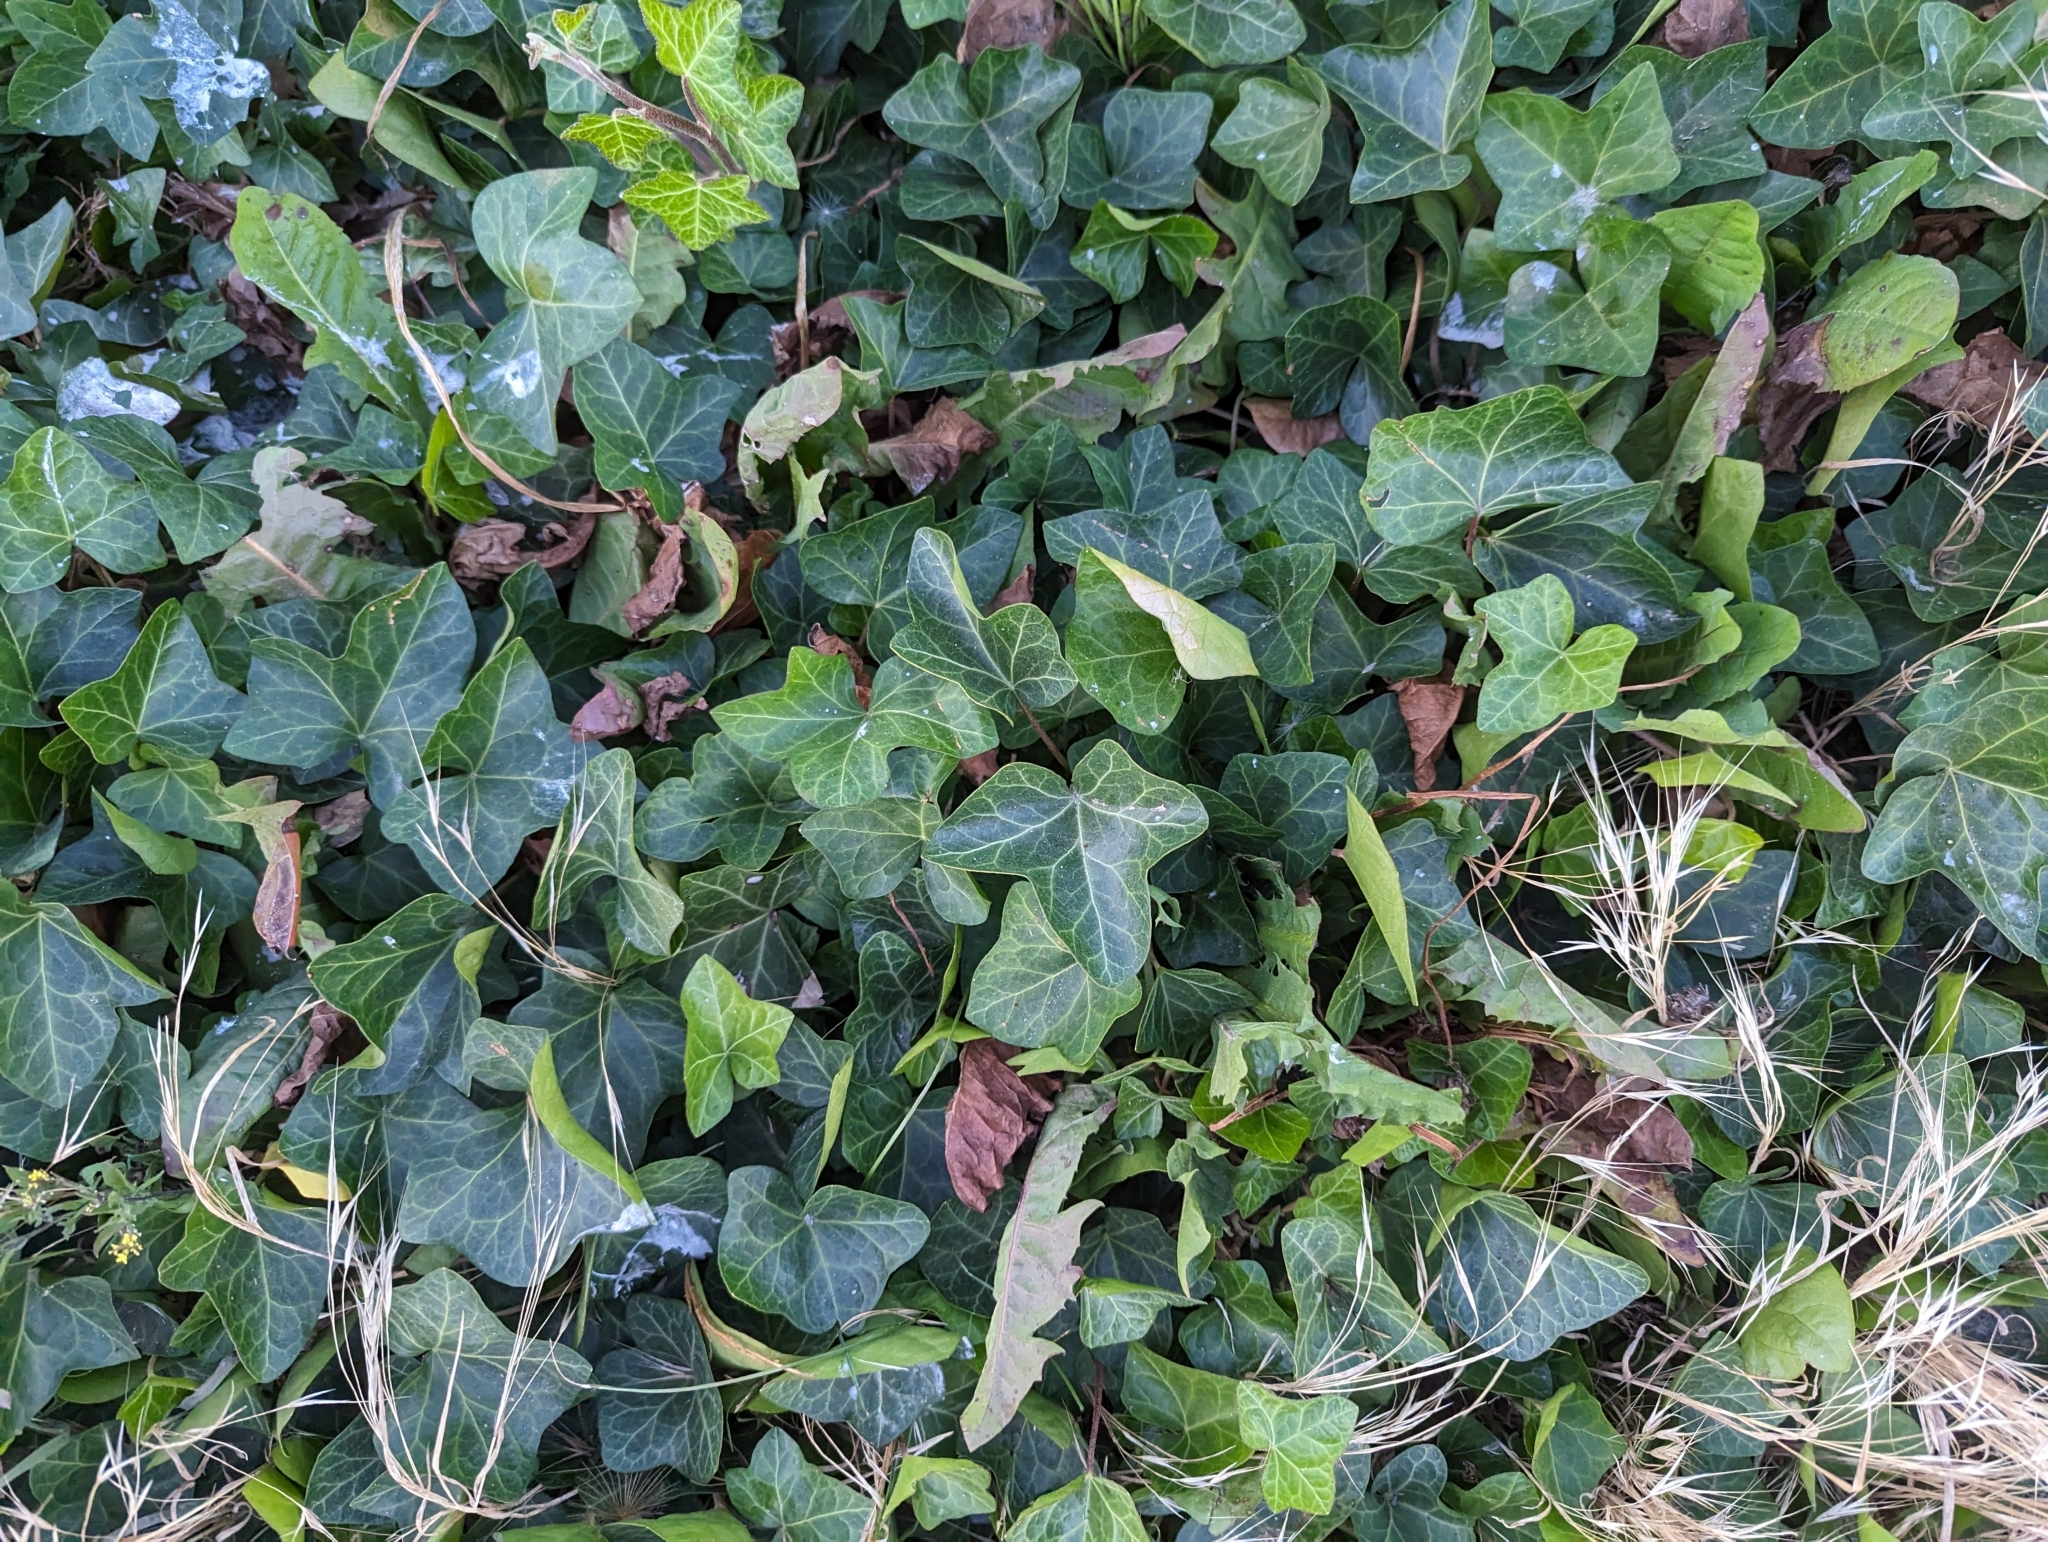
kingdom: Plantae
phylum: Tracheophyta
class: Magnoliopsida
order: Apiales
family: Araliaceae
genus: Hedera
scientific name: Hedera helix
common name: Ivy
